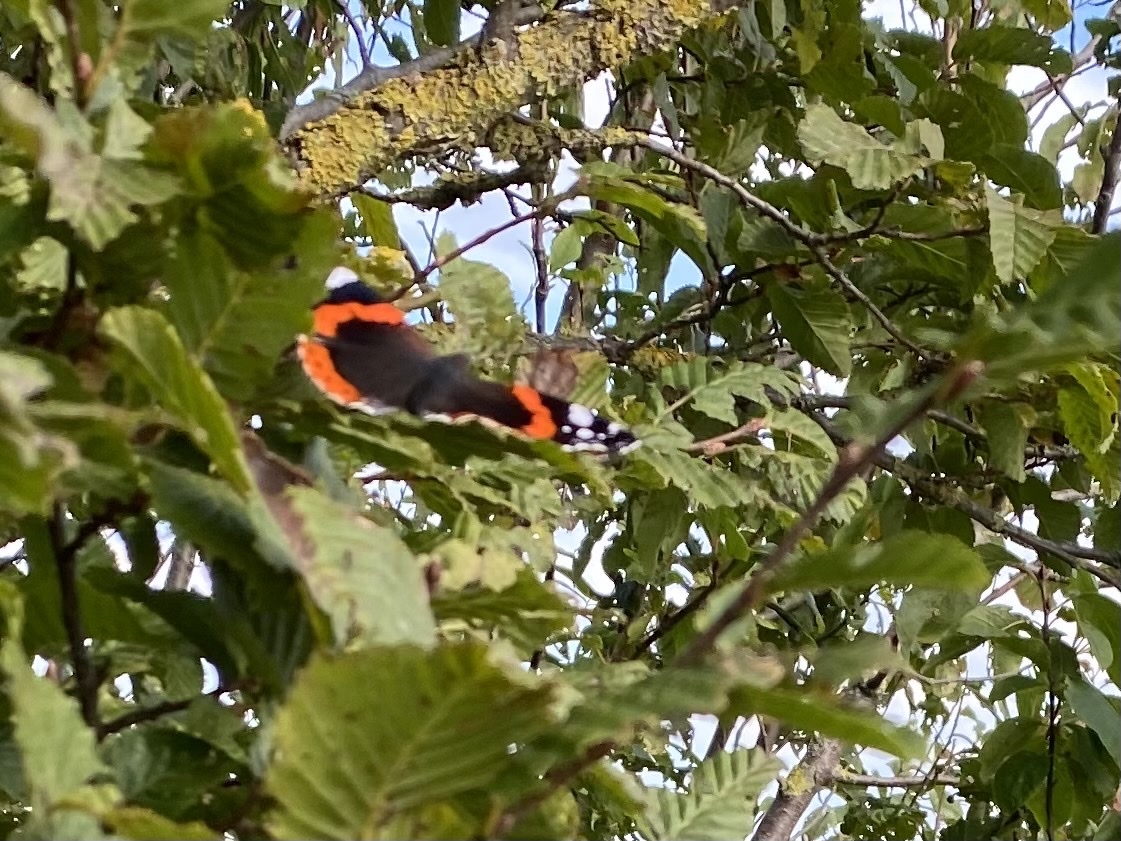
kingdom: Animalia
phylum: Arthropoda
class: Insecta
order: Lepidoptera
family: Nymphalidae
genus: Vanessa
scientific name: Vanessa atalanta
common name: Red admiral
